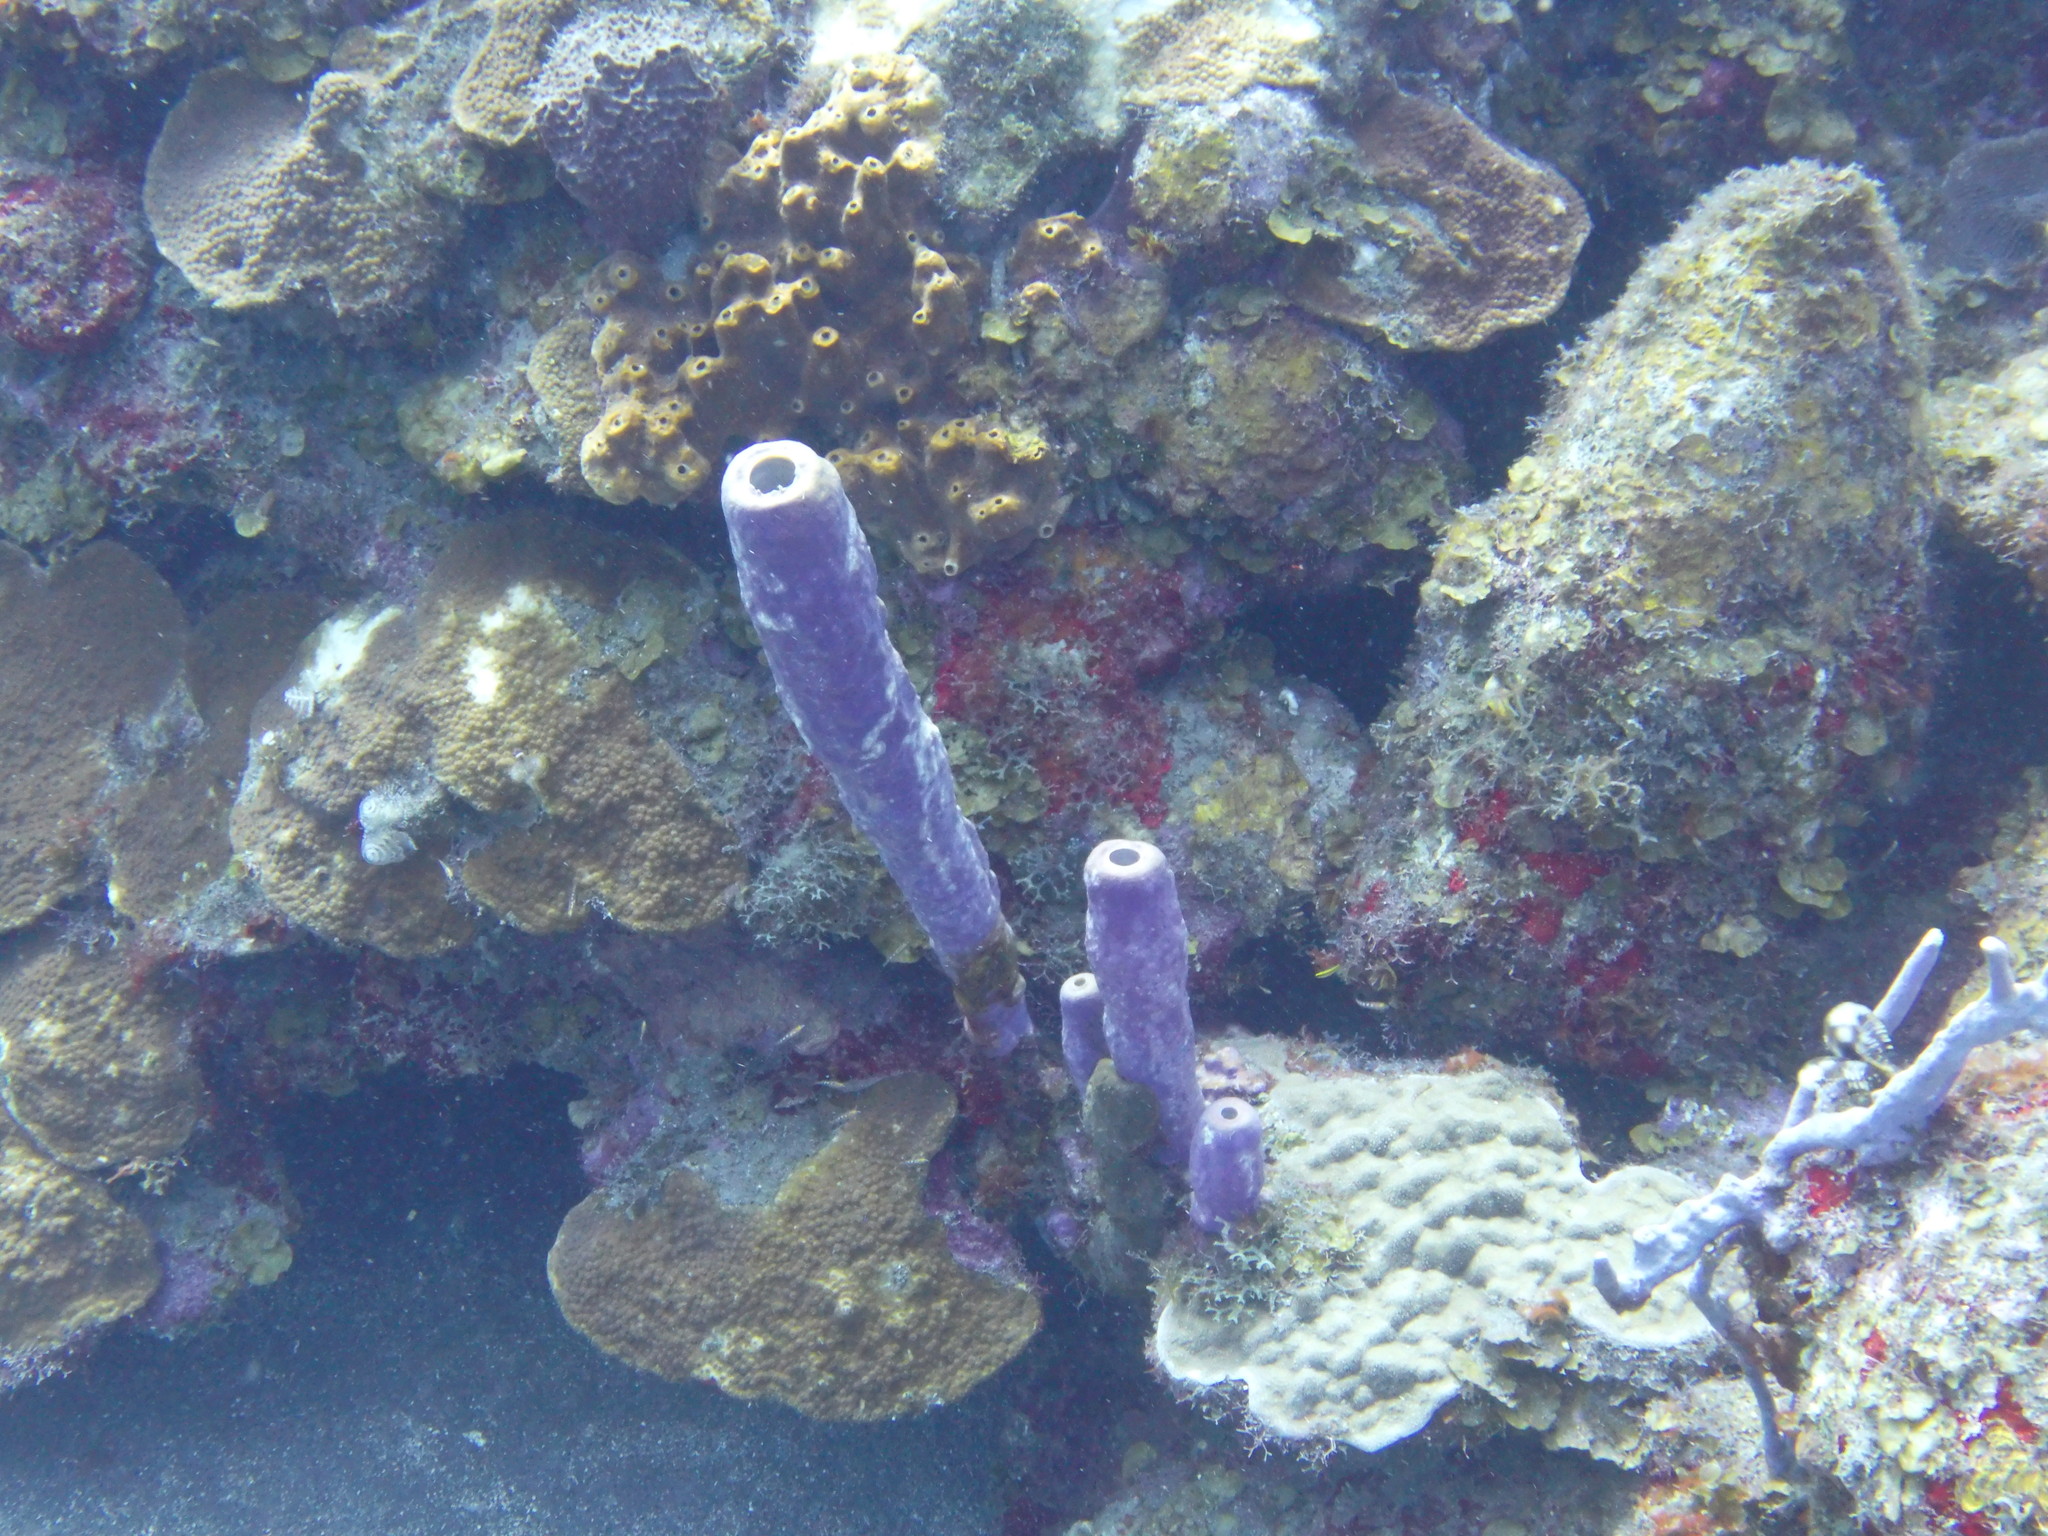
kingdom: Animalia
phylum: Porifera
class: Demospongiae
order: Verongiida
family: Aplysinidae
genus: Aplysina
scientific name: Aplysina archeri
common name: Stove-pipe sponge
